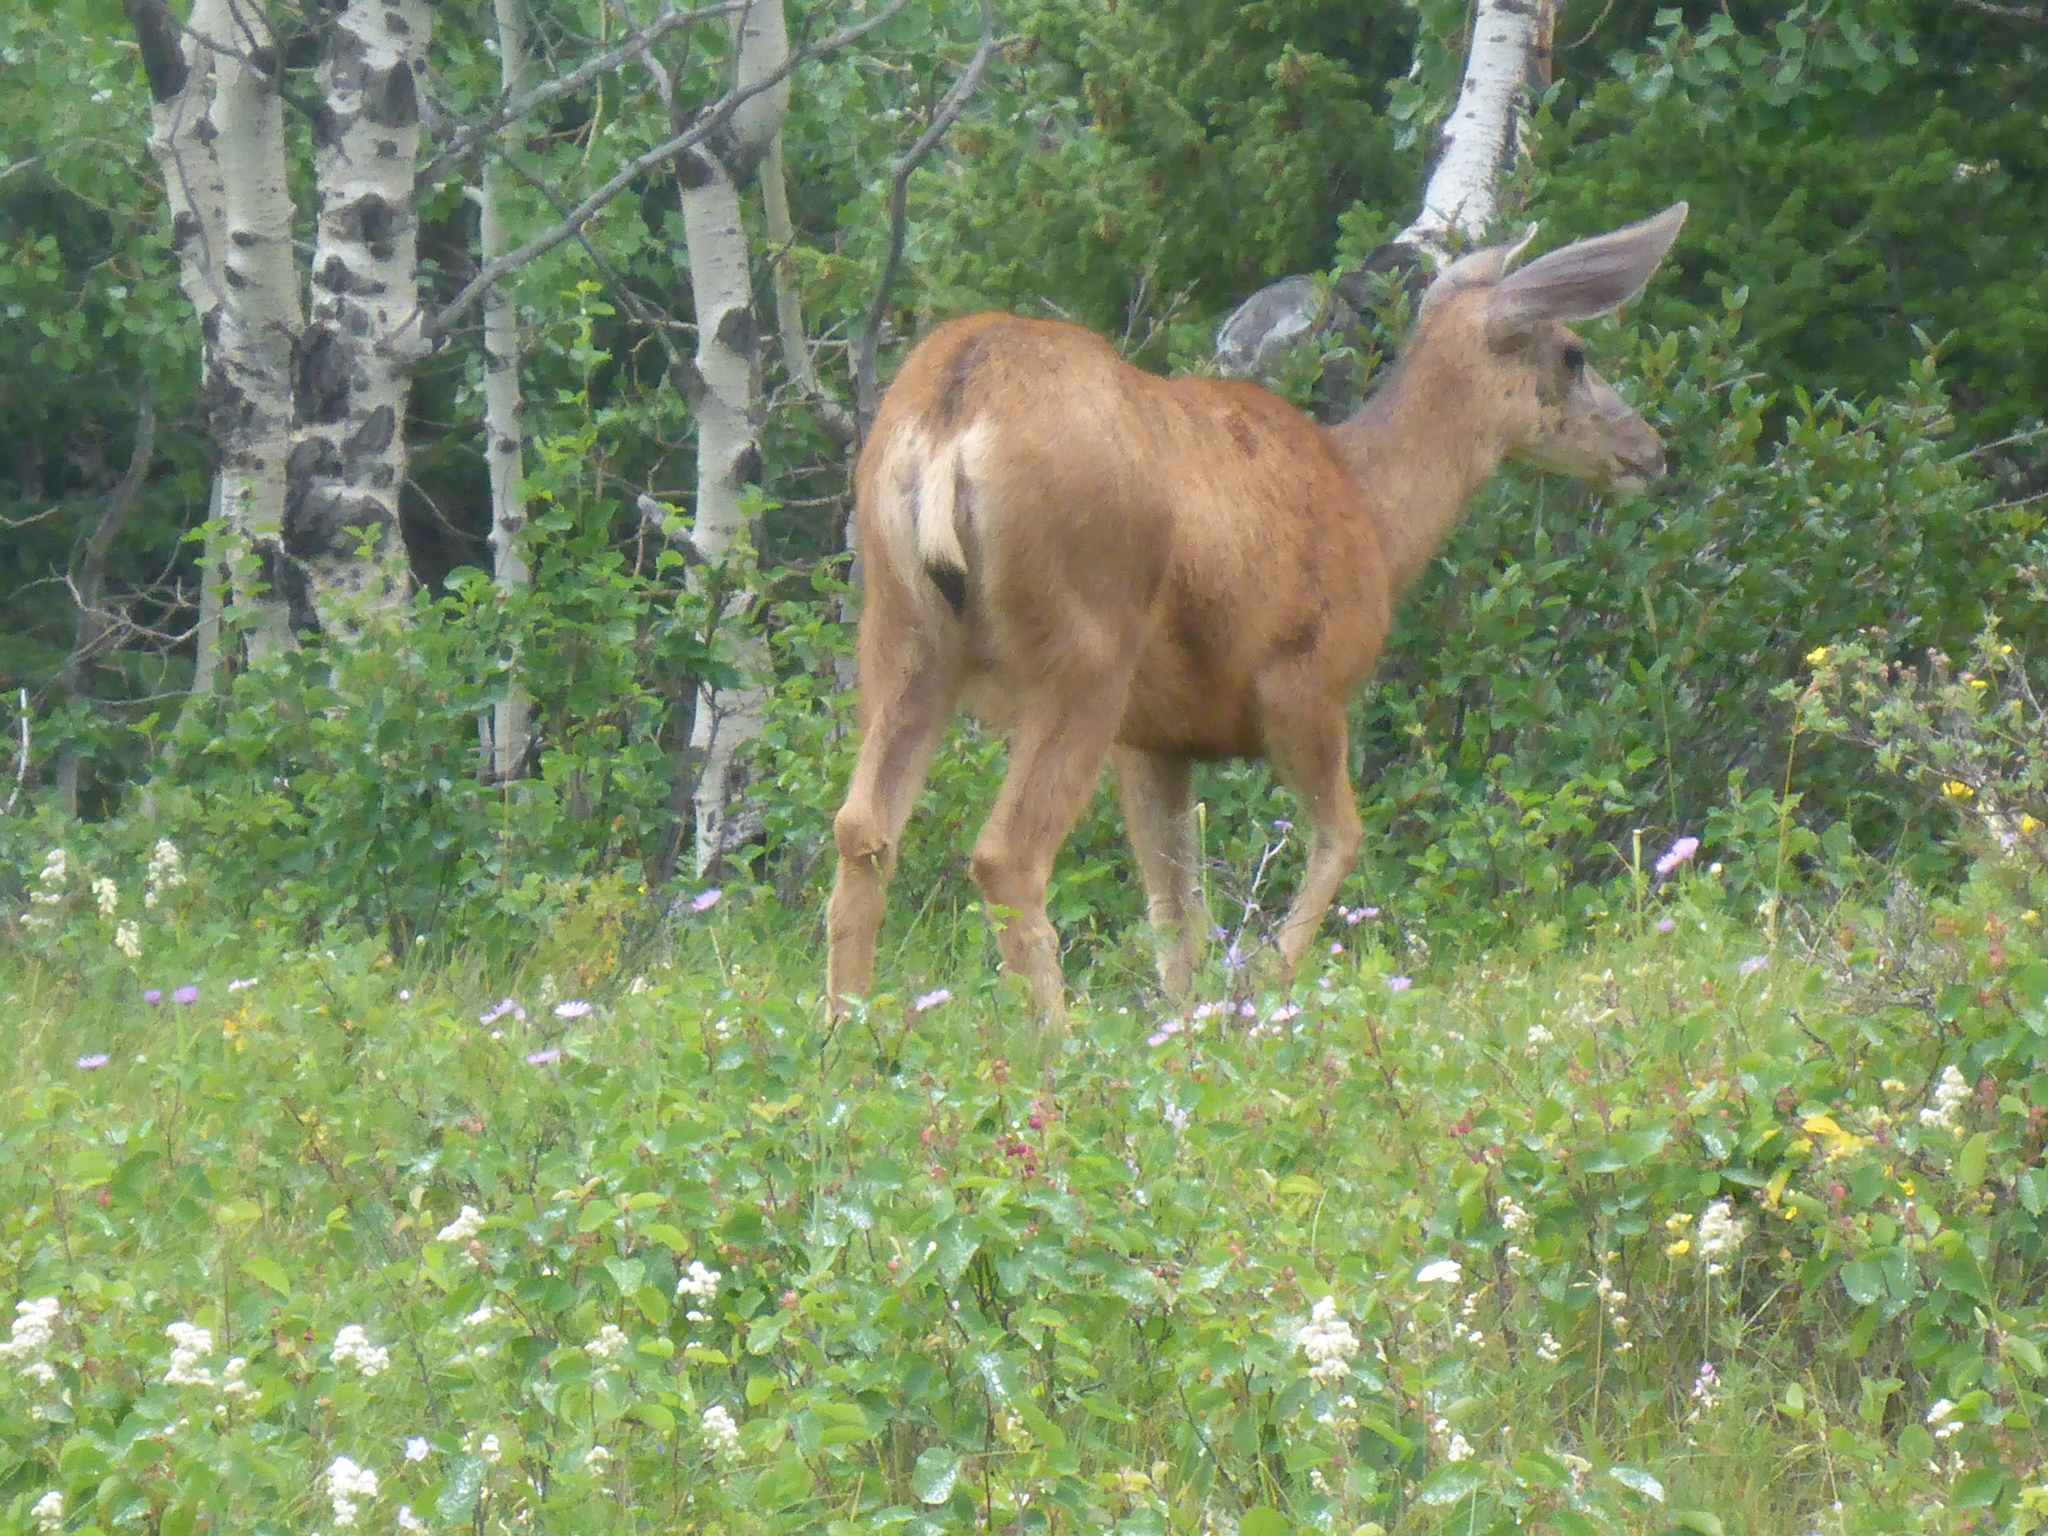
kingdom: Animalia
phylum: Chordata
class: Mammalia
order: Artiodactyla
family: Cervidae
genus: Odocoileus
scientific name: Odocoileus hemionus
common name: Mule deer
